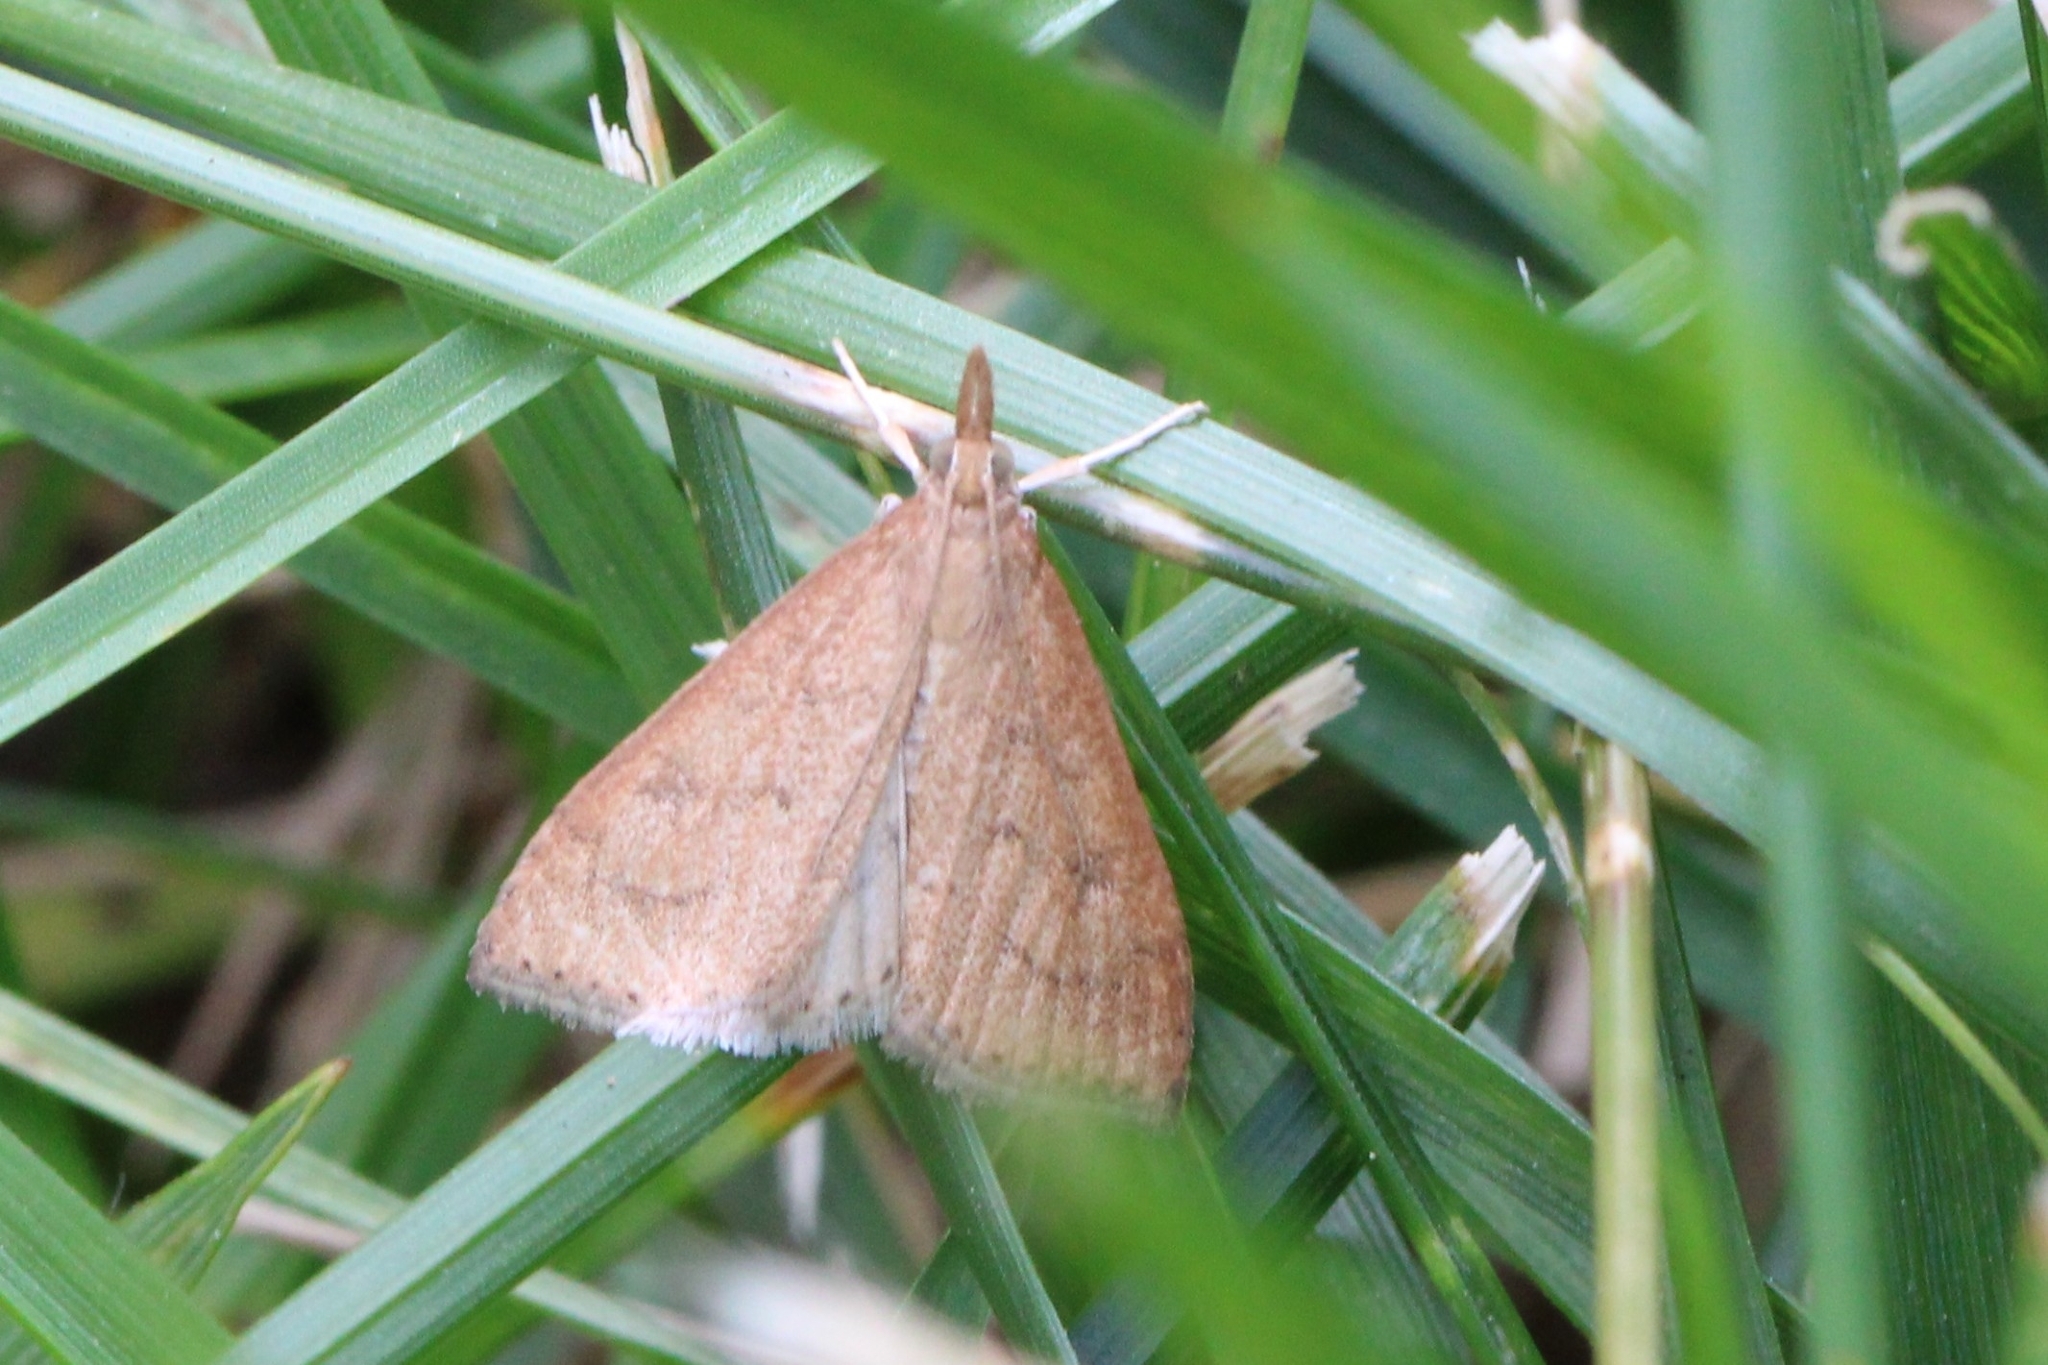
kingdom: Animalia
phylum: Arthropoda
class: Insecta
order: Lepidoptera
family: Crambidae
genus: Udea
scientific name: Udea rubigalis
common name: Celery leaftier moth
